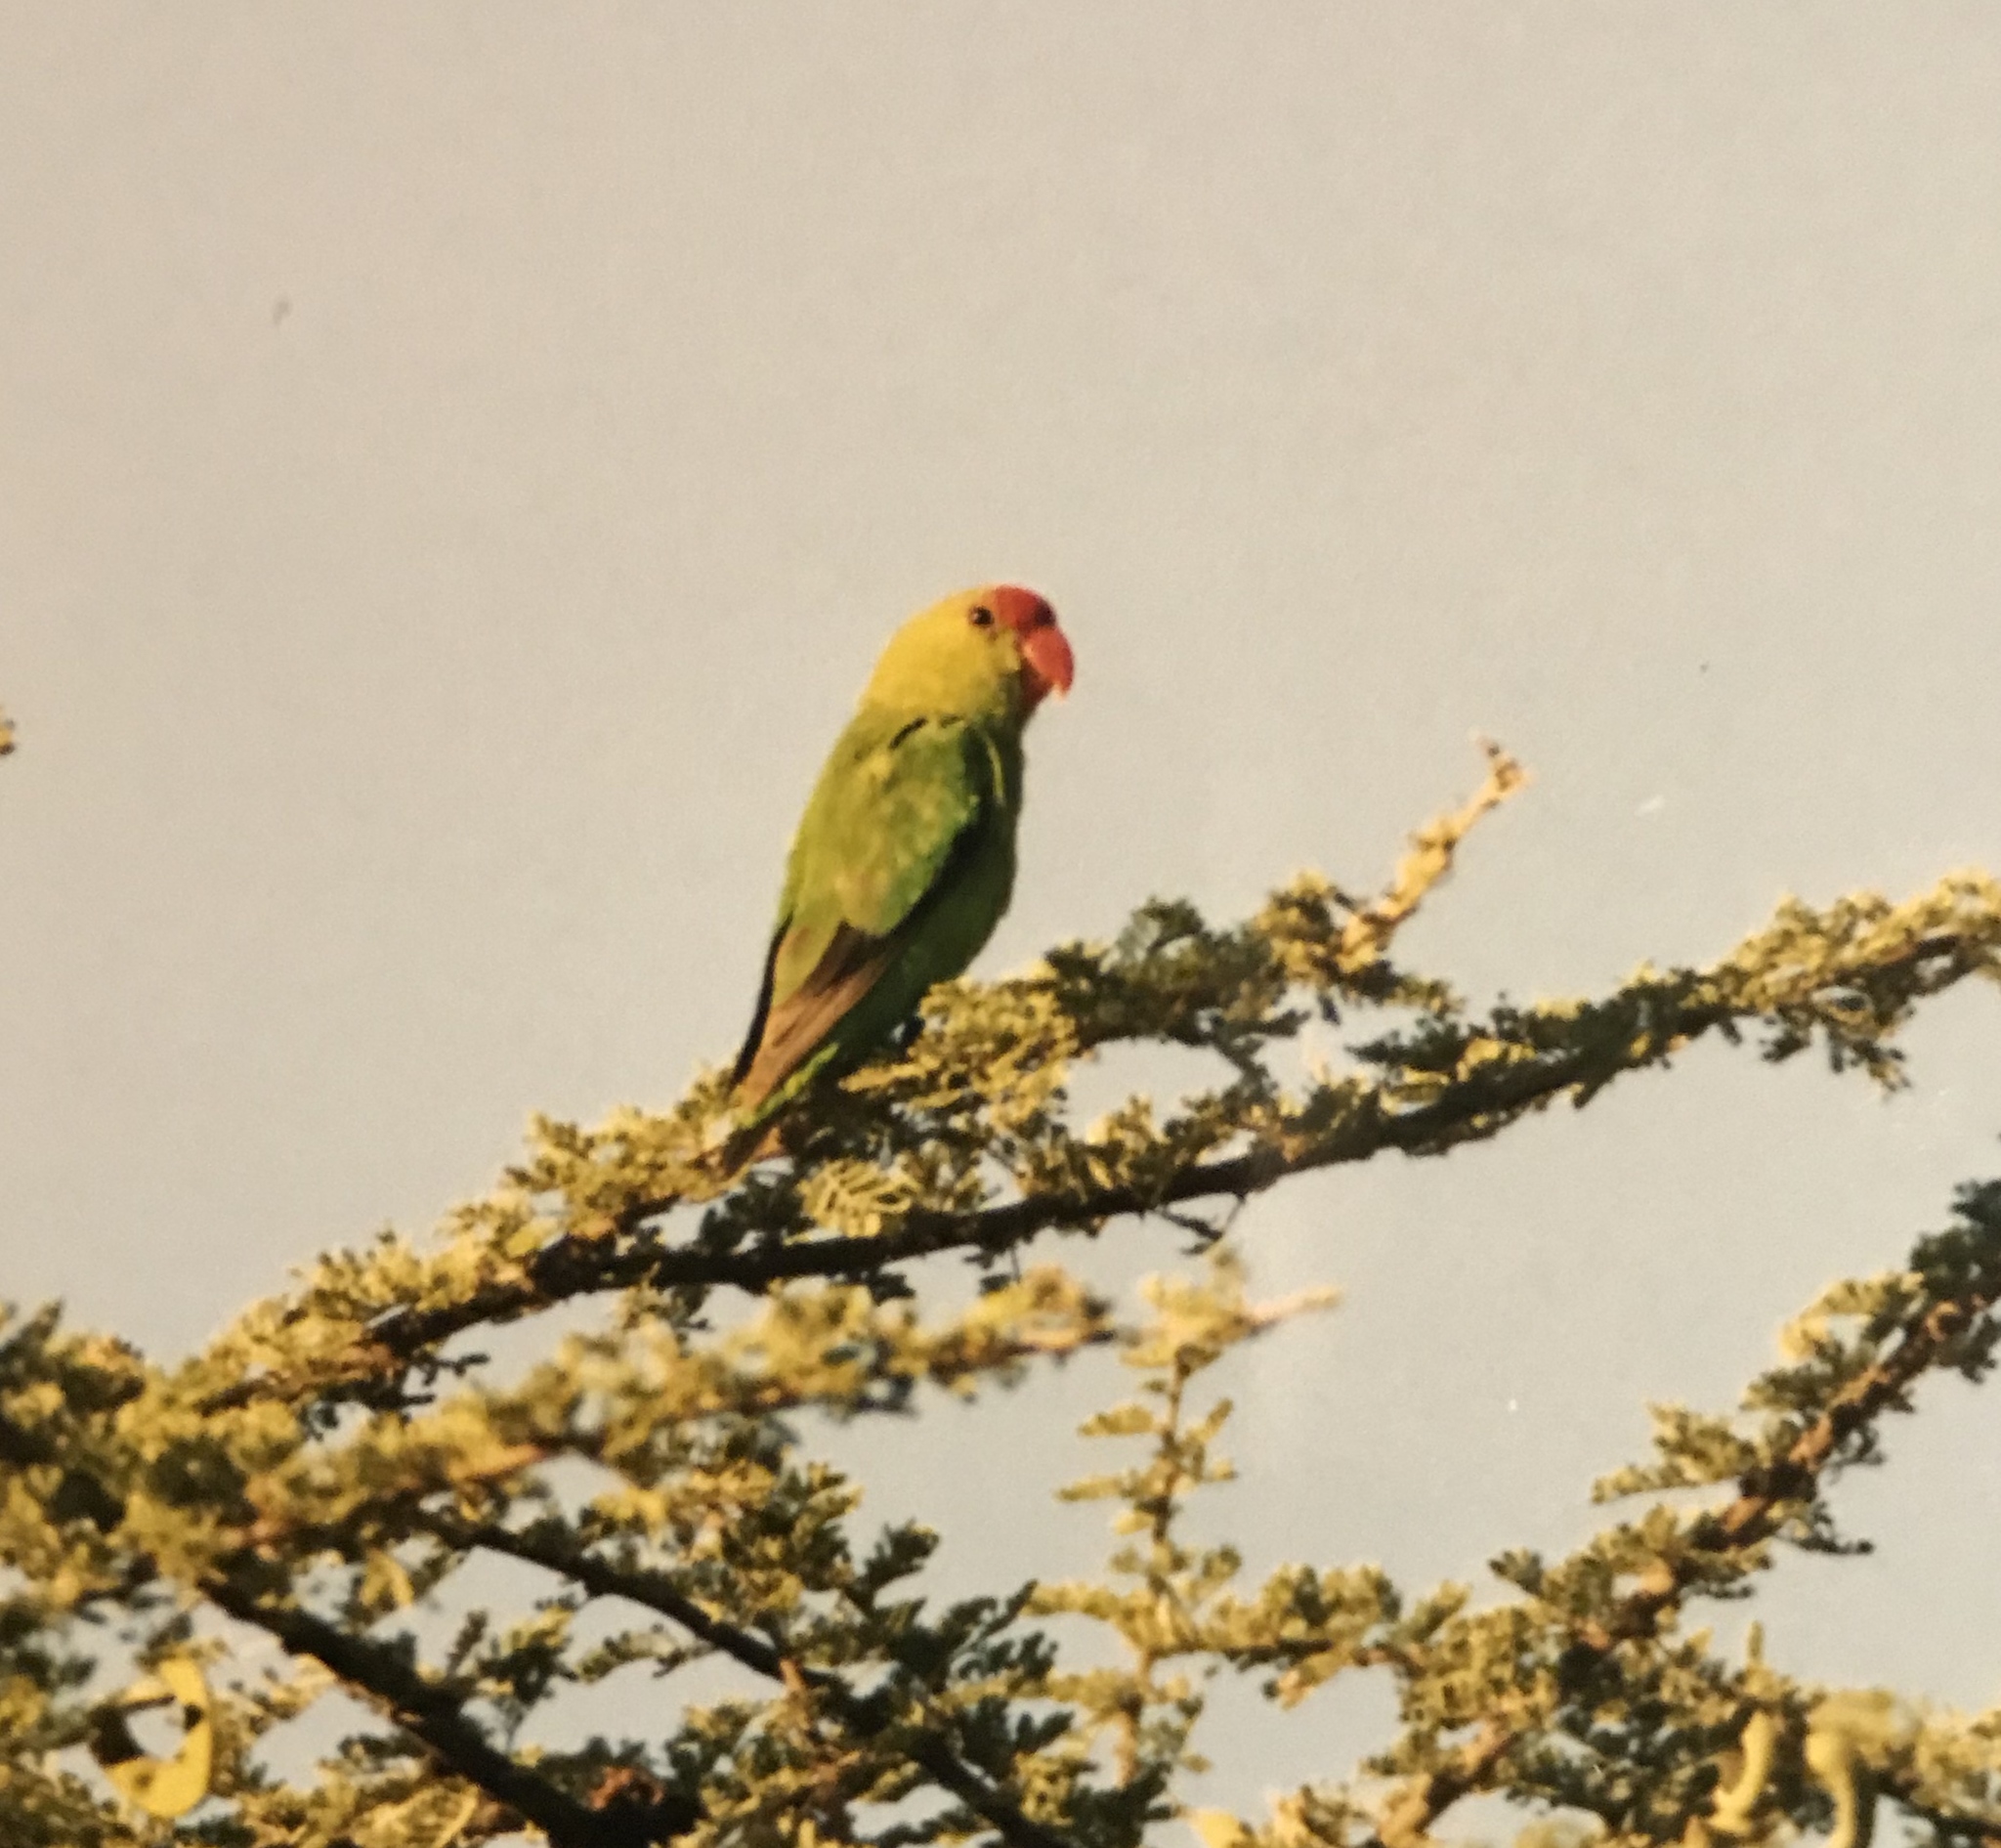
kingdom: Animalia
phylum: Chordata
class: Aves
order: Psittaciformes
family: Psittacidae
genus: Agapornis
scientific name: Agapornis taranta
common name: Black-winged lovebird
